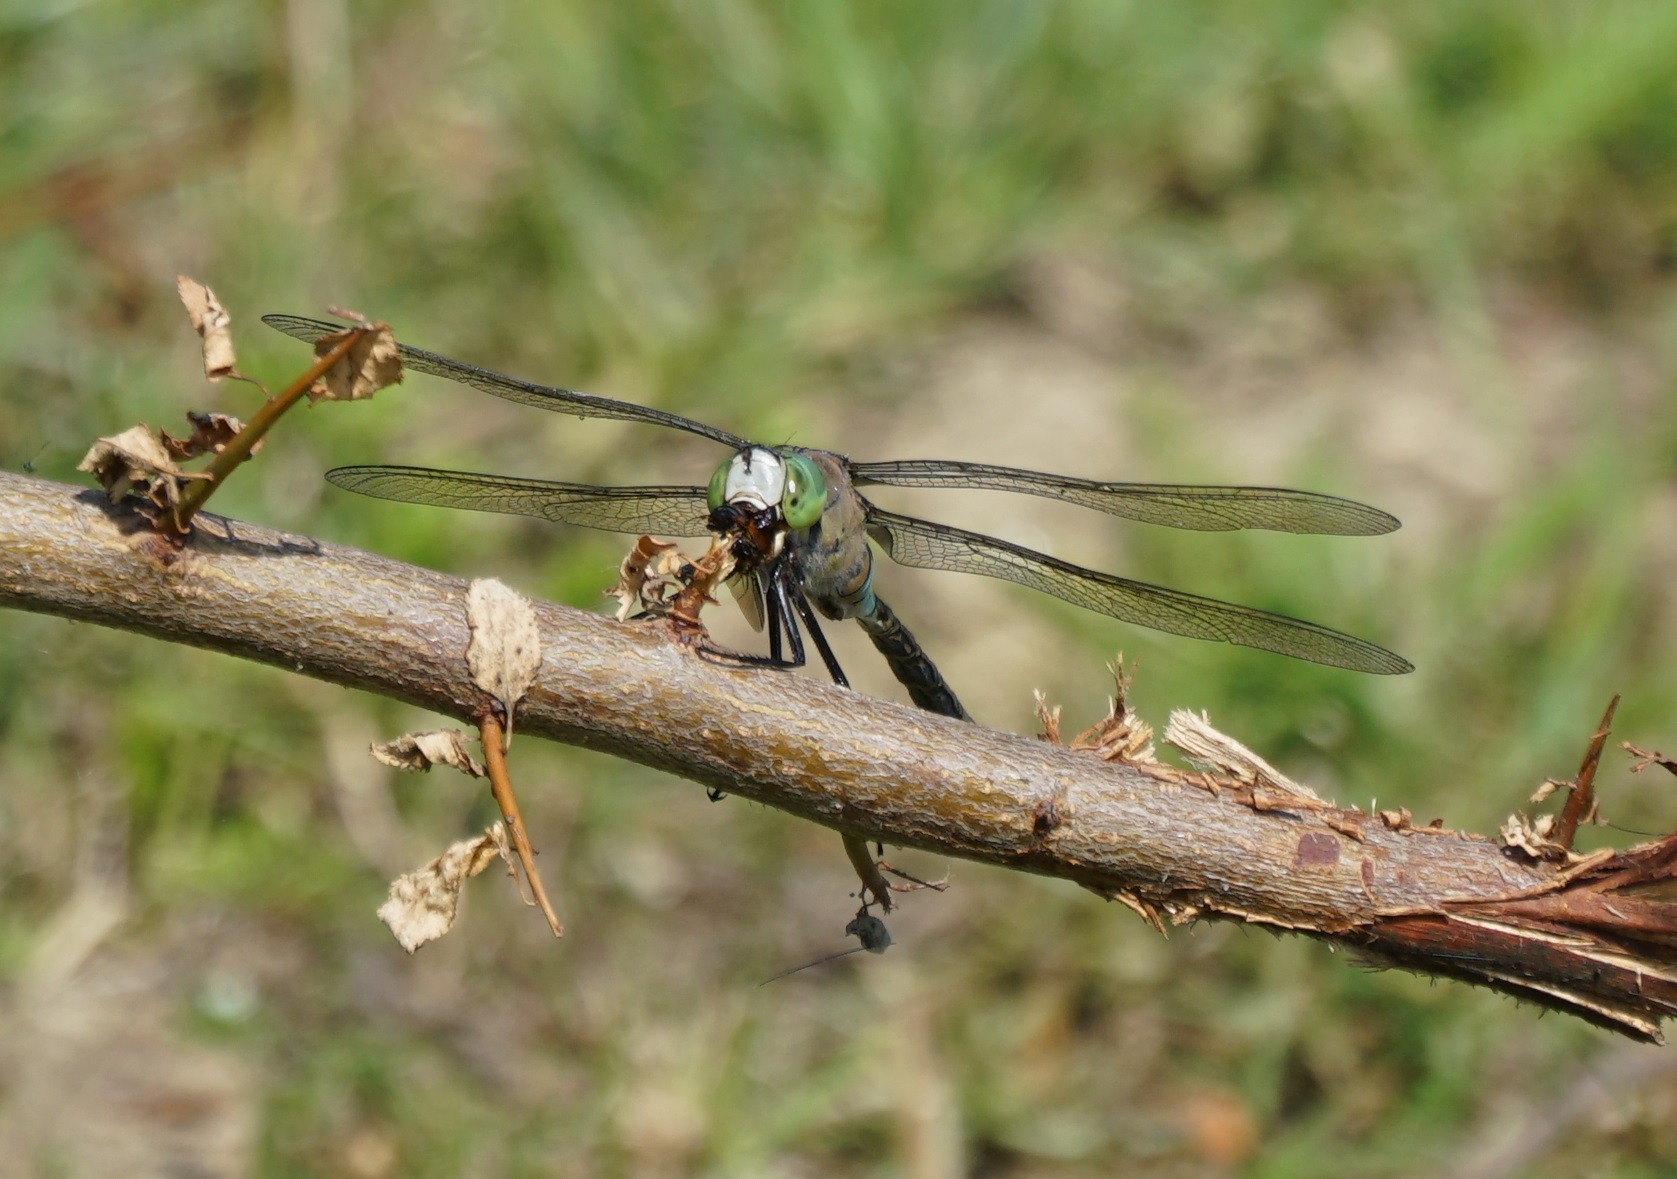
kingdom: Animalia
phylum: Arthropoda
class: Insecta
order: Odonata
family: Aeshnidae
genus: Anax
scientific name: Anax parthenope
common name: Lesser emperor
